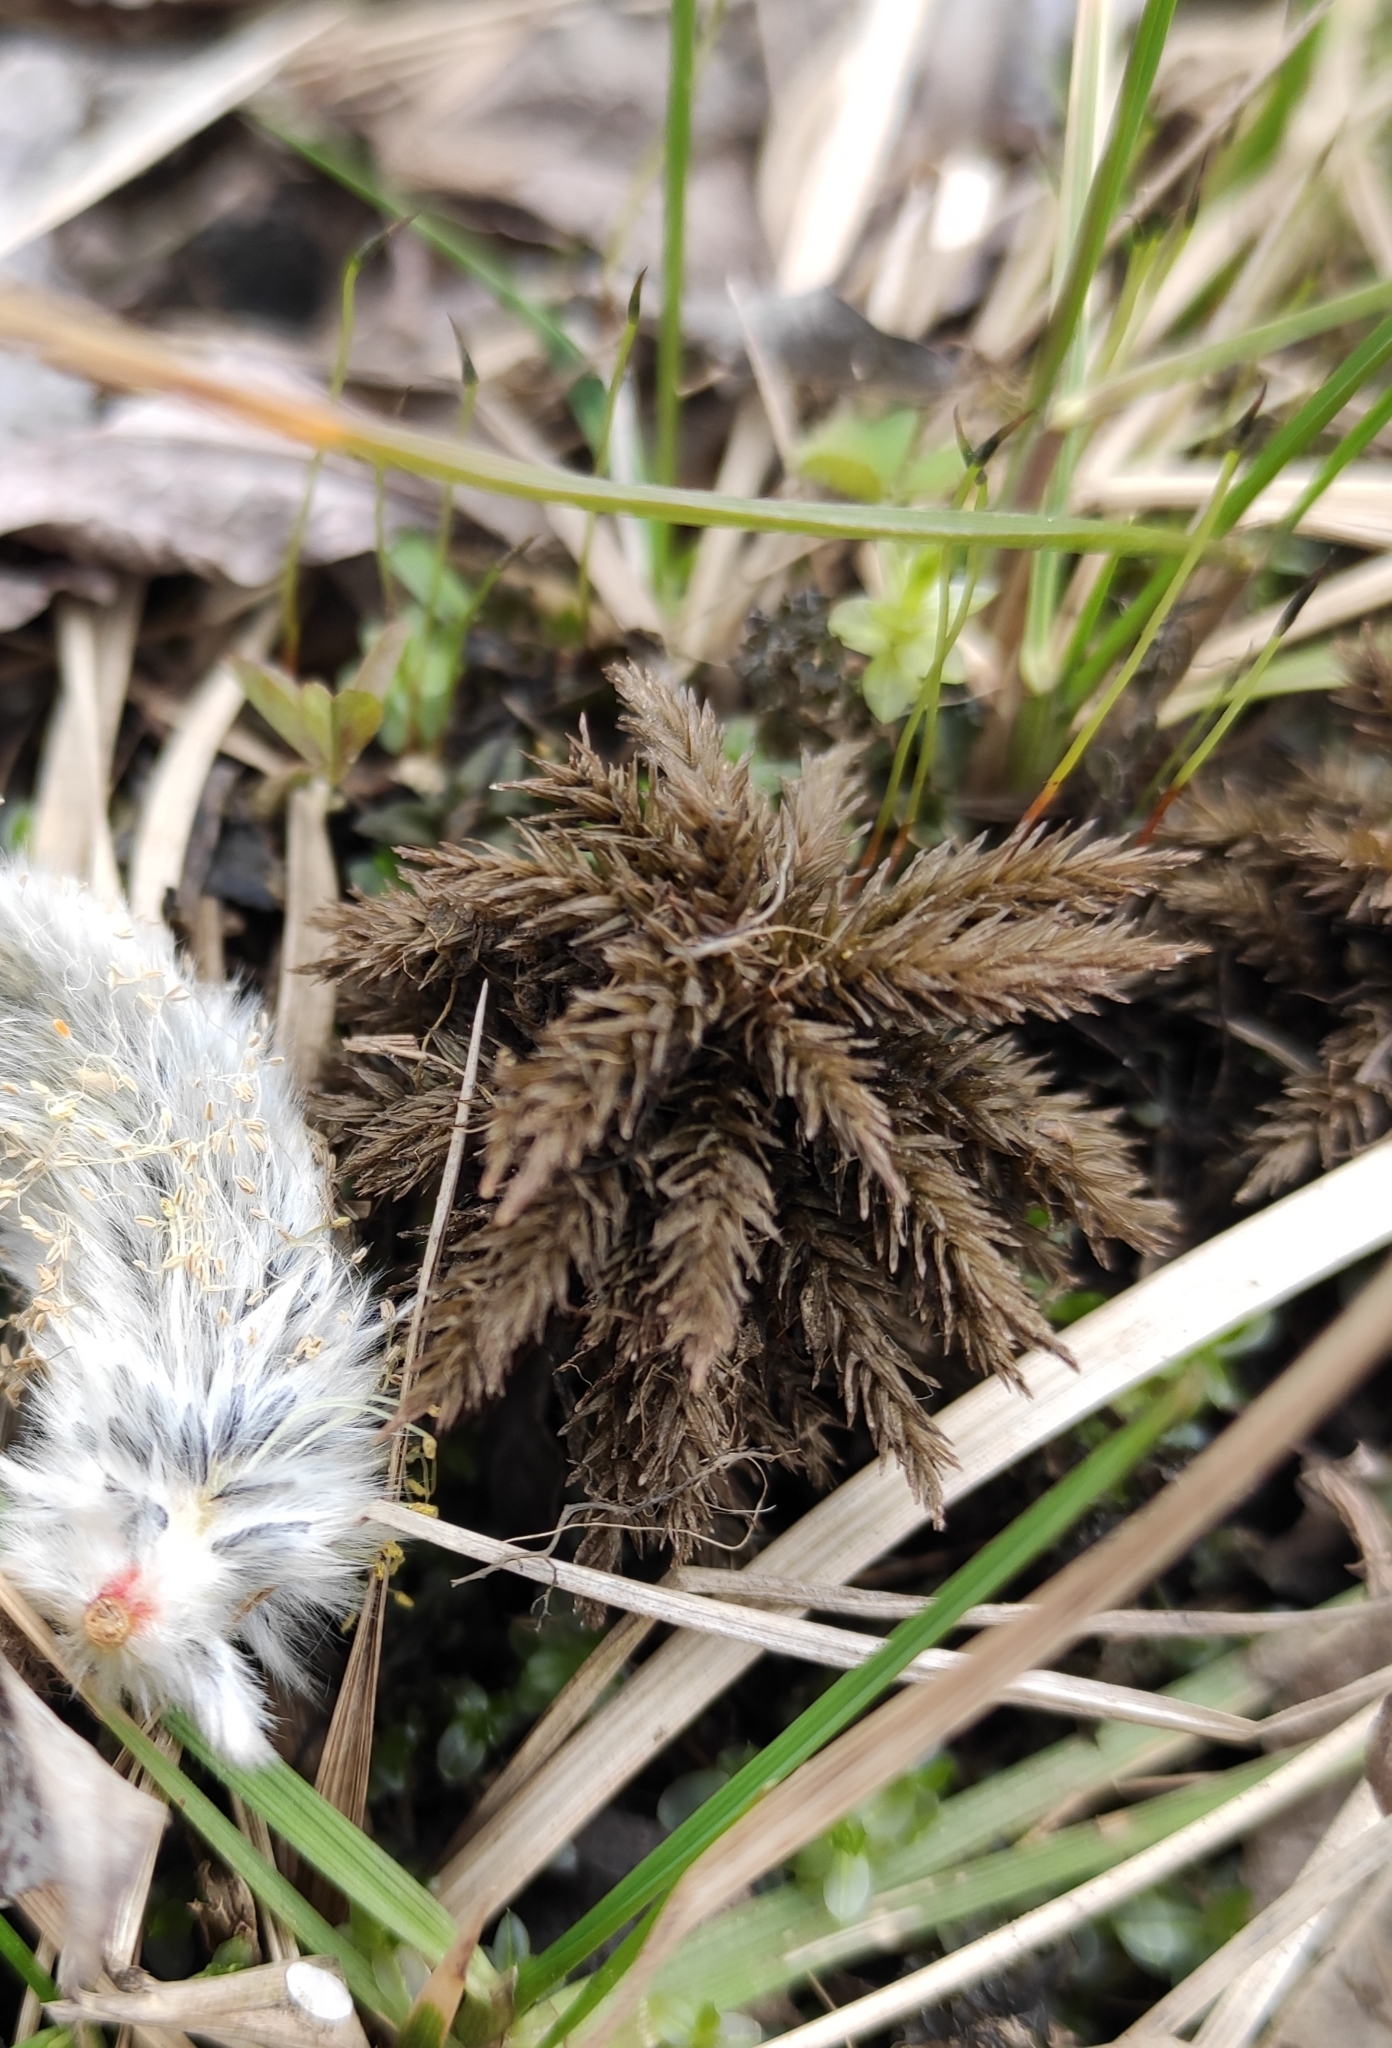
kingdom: Plantae
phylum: Bryophyta
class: Bryopsida
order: Hypnales
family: Climaciaceae
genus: Climacium
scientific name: Climacium dendroides
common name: Northern tree moss
